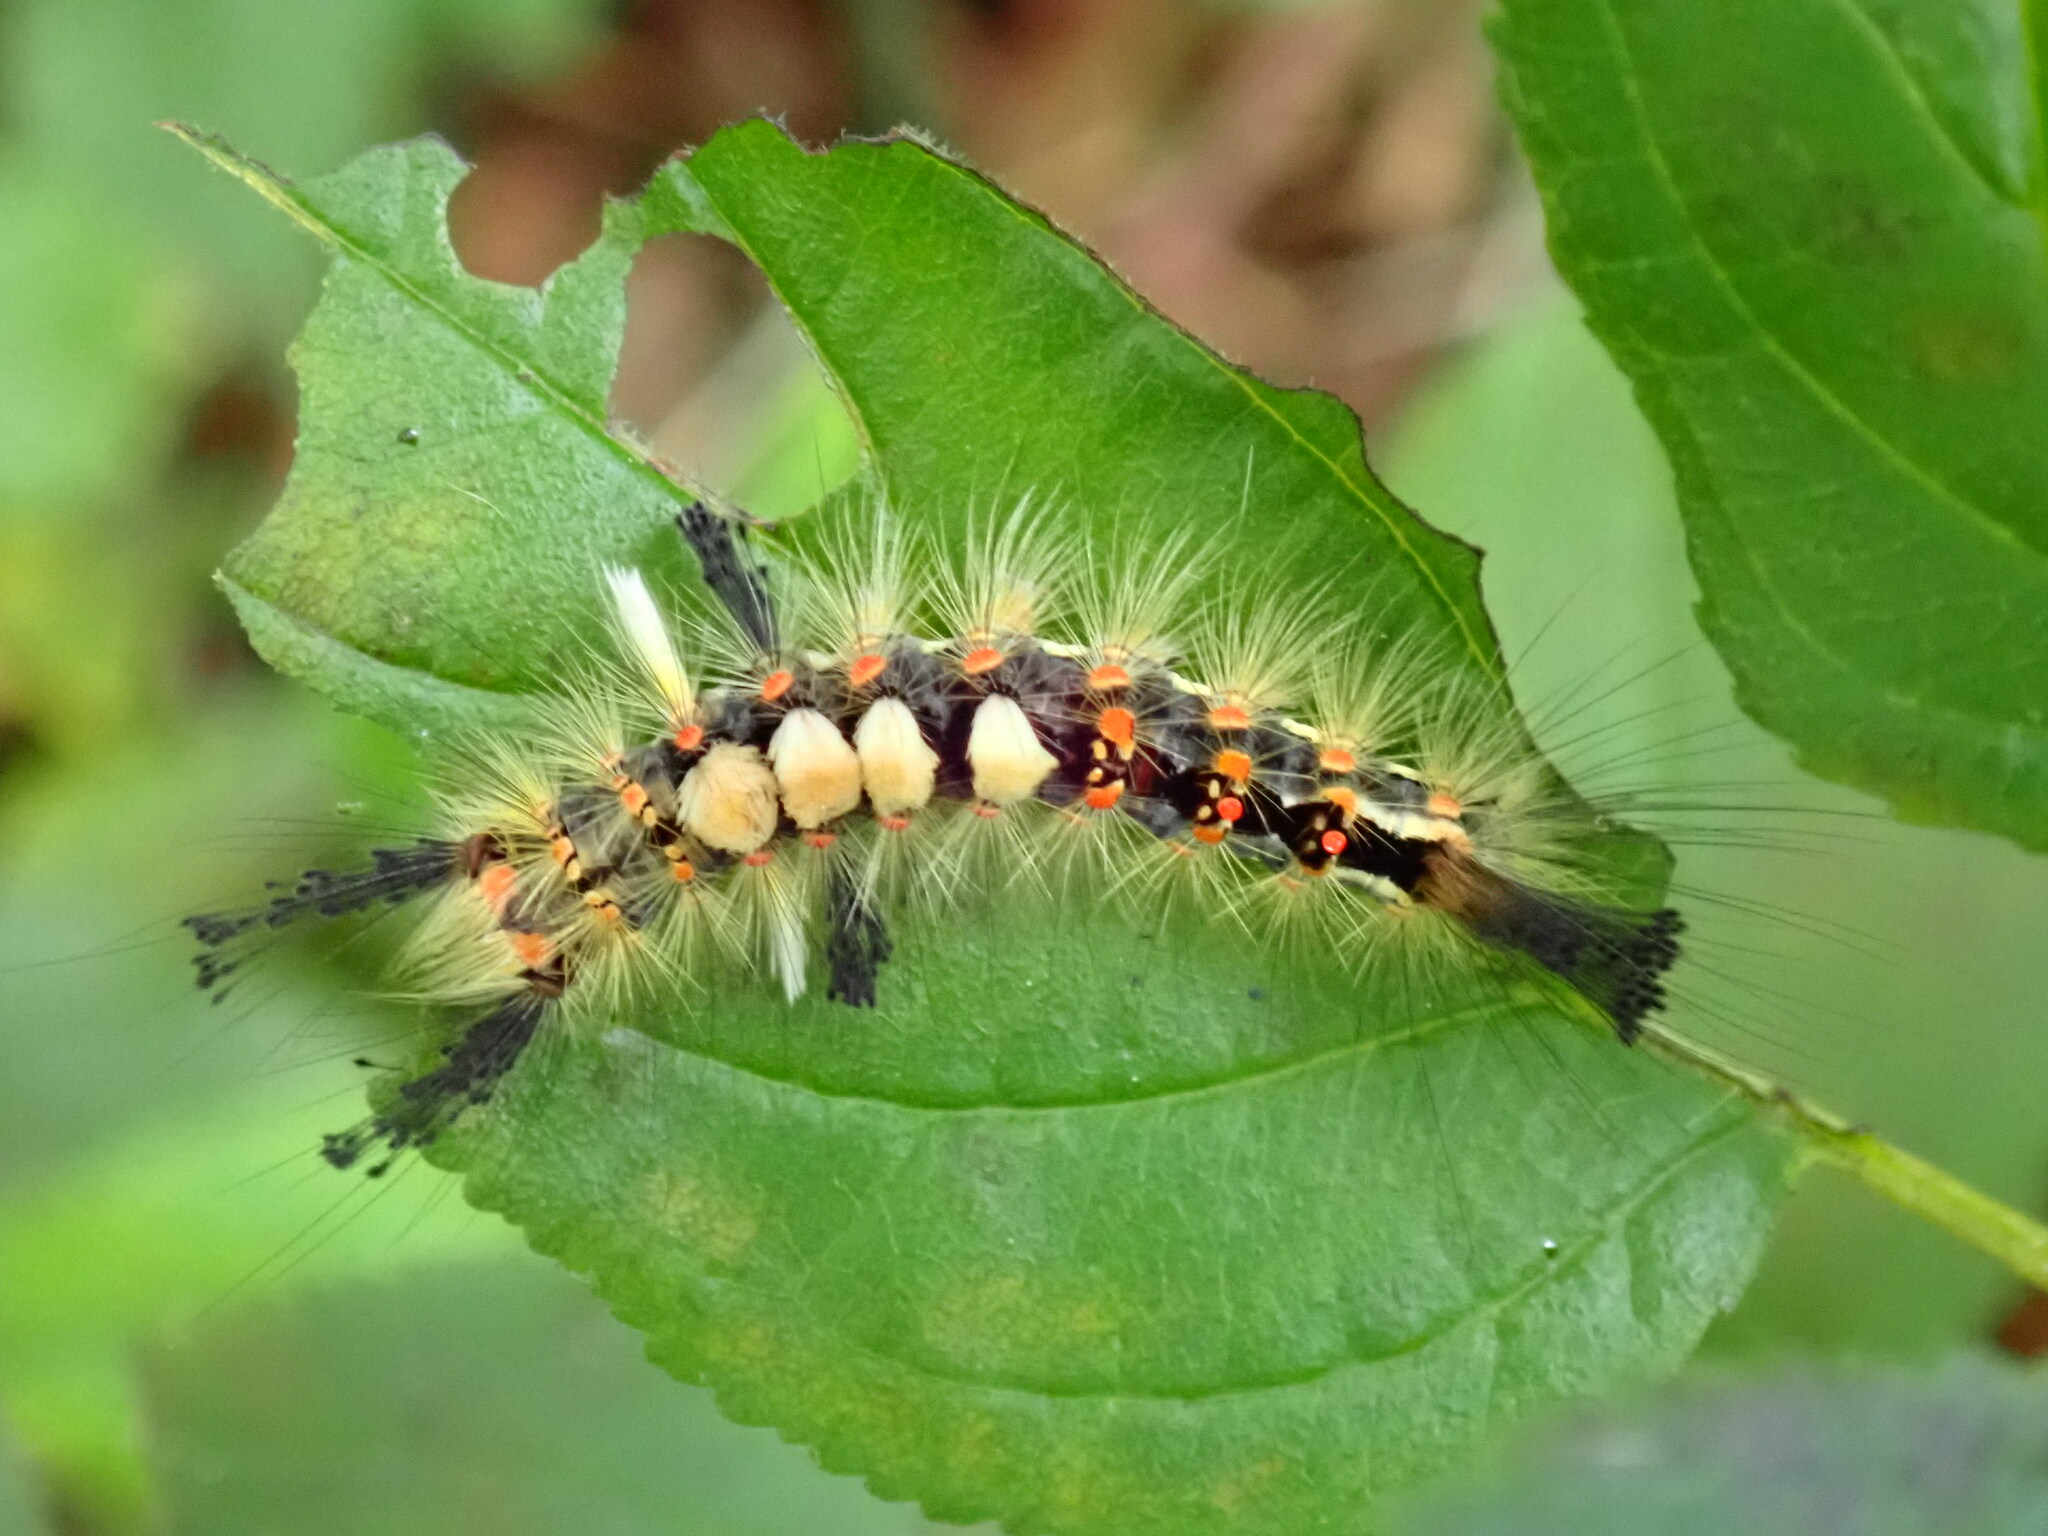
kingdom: Animalia
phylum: Arthropoda
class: Insecta
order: Lepidoptera
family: Erebidae
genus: Orgyia
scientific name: Orgyia antiqua
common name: Vapourer
